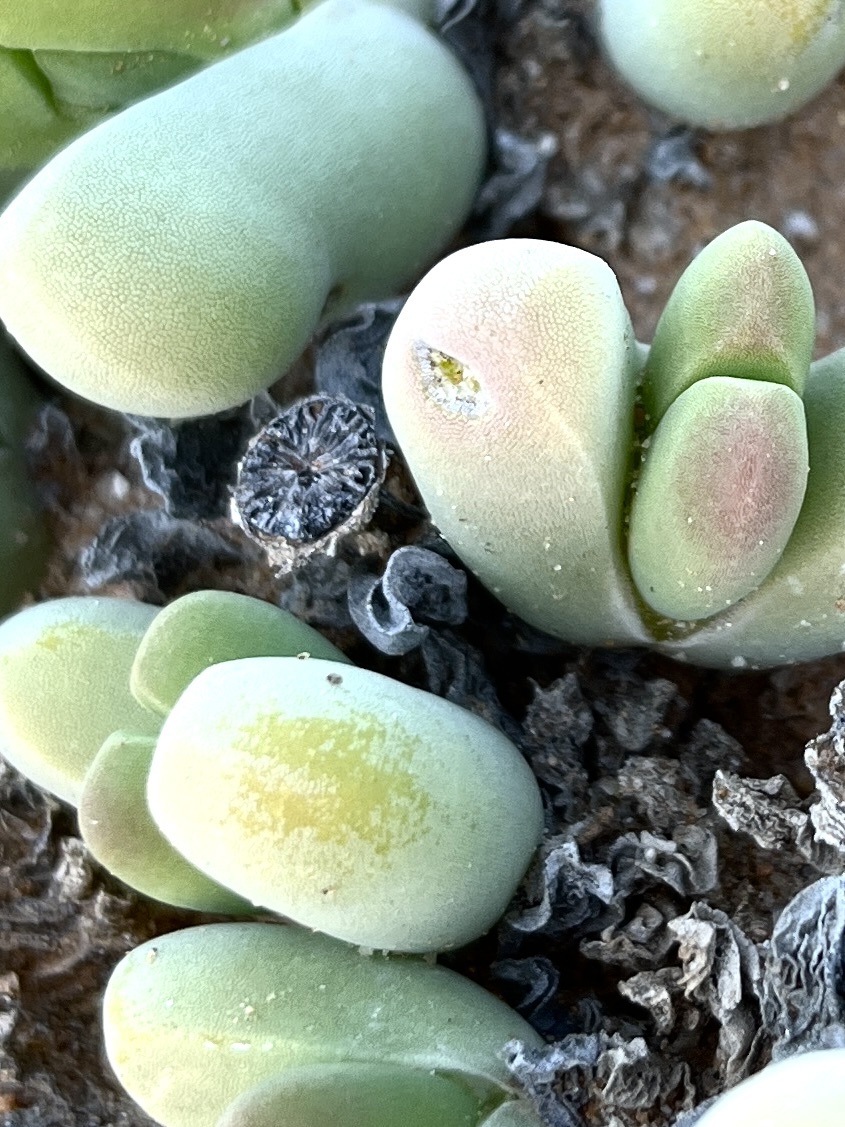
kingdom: Plantae
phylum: Tracheophyta
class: Magnoliopsida
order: Caryophyllales
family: Aizoaceae
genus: Jacobsenia
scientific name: Jacobsenia vaginata
